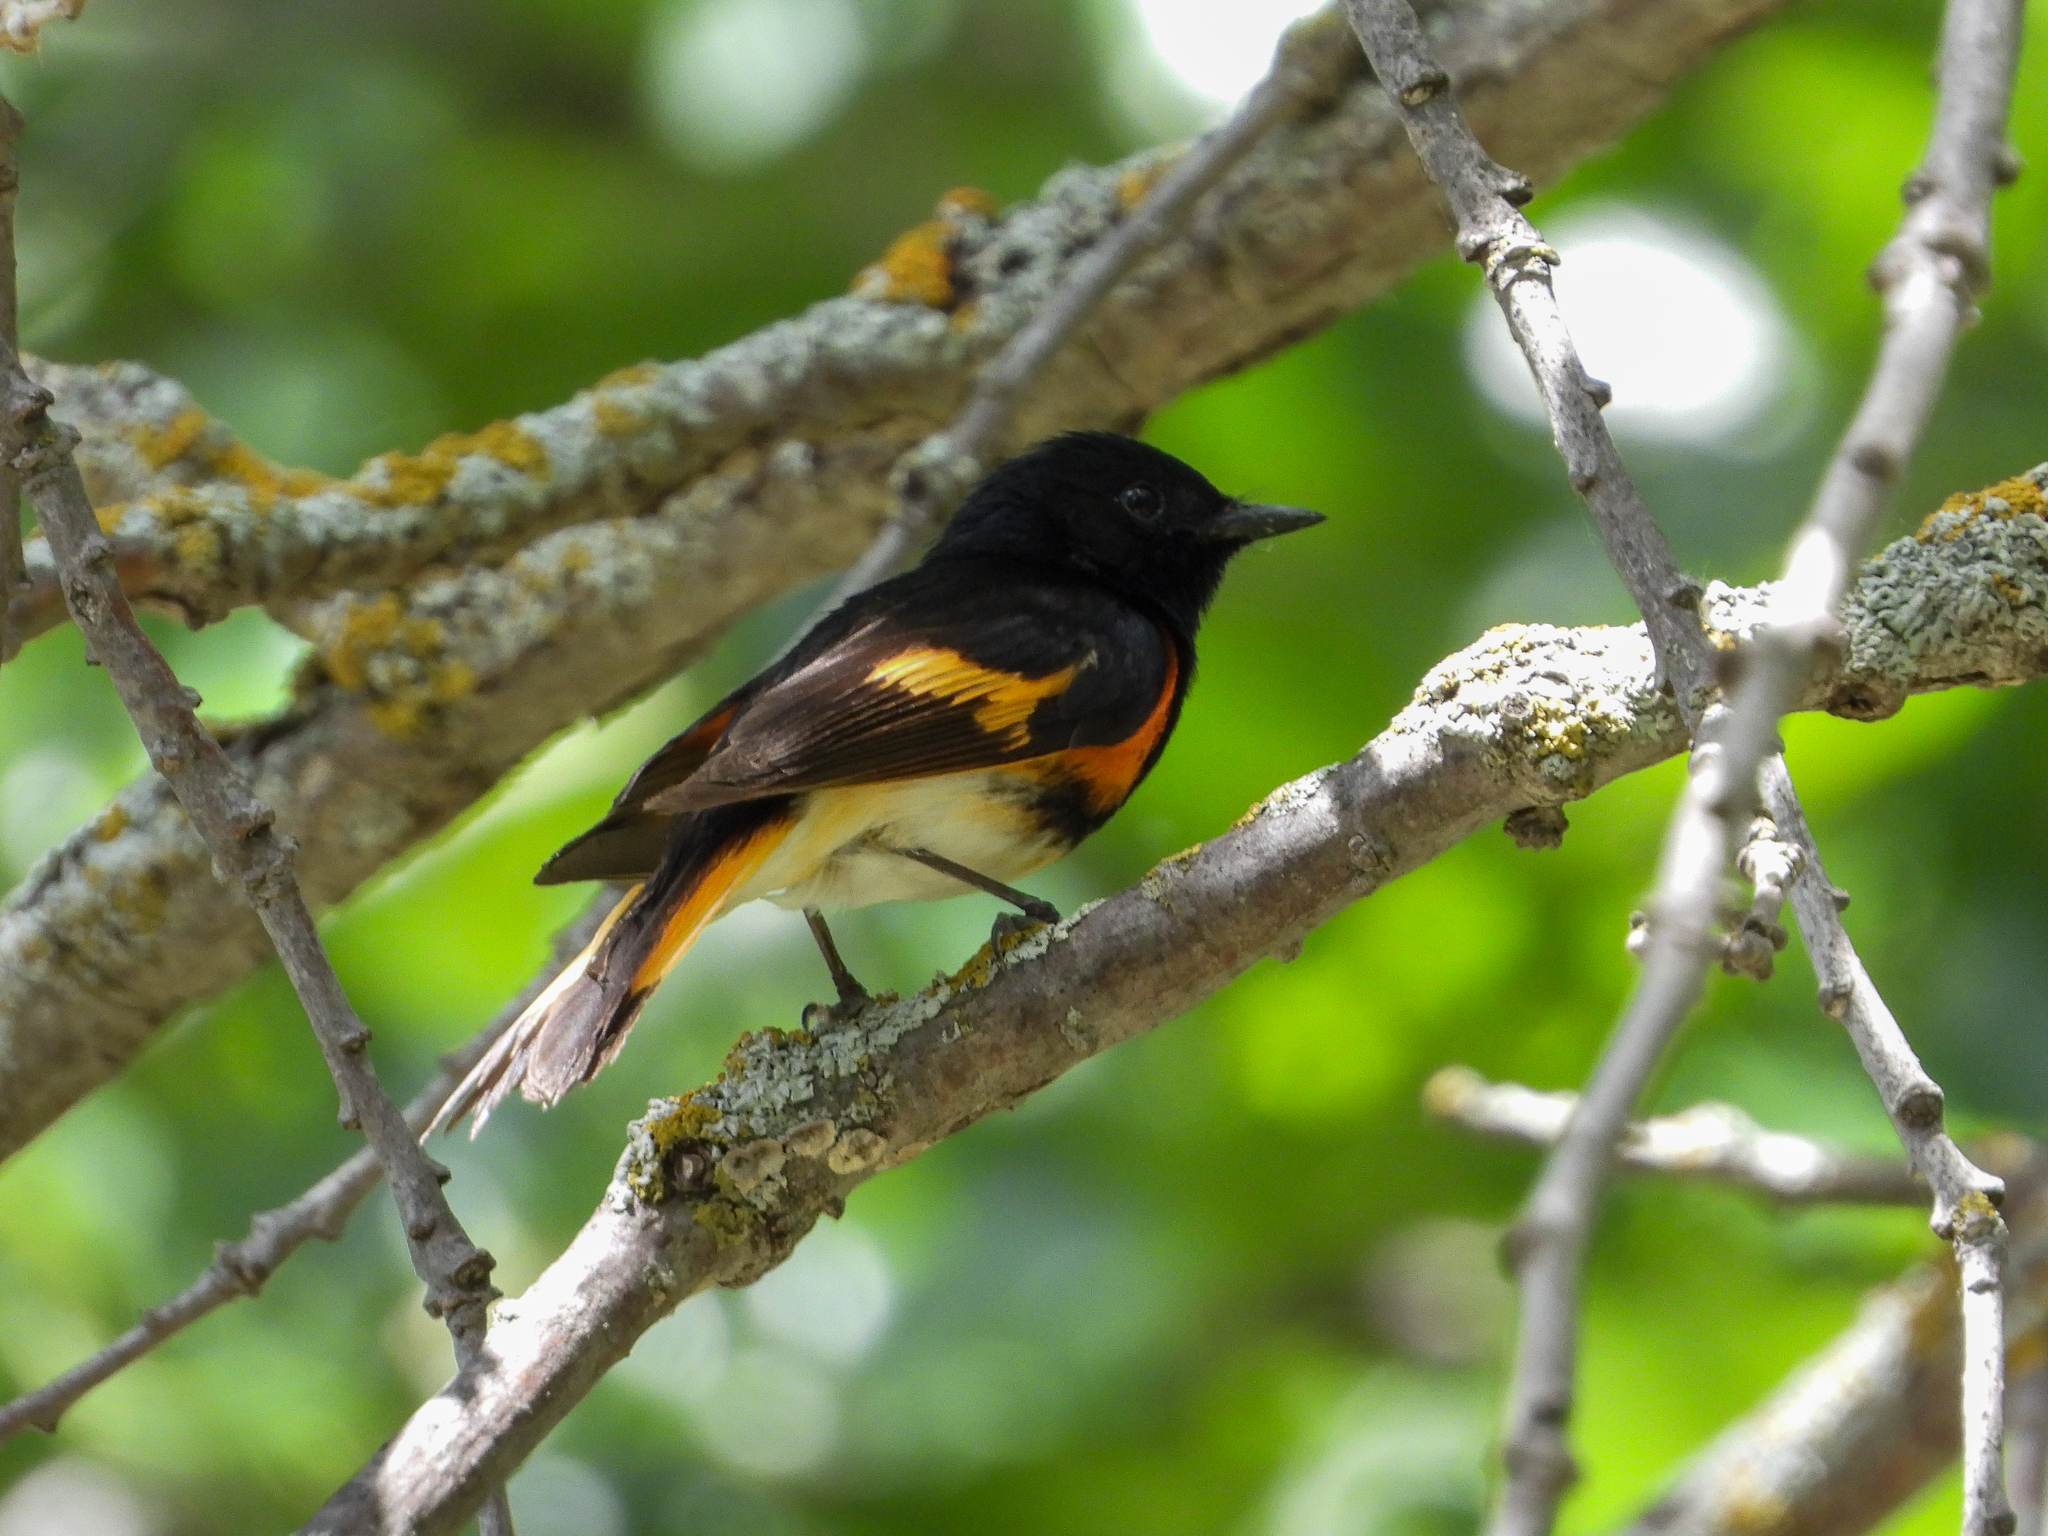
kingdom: Animalia
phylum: Chordata
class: Aves
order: Passeriformes
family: Parulidae
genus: Setophaga
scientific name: Setophaga ruticilla
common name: American redstart
